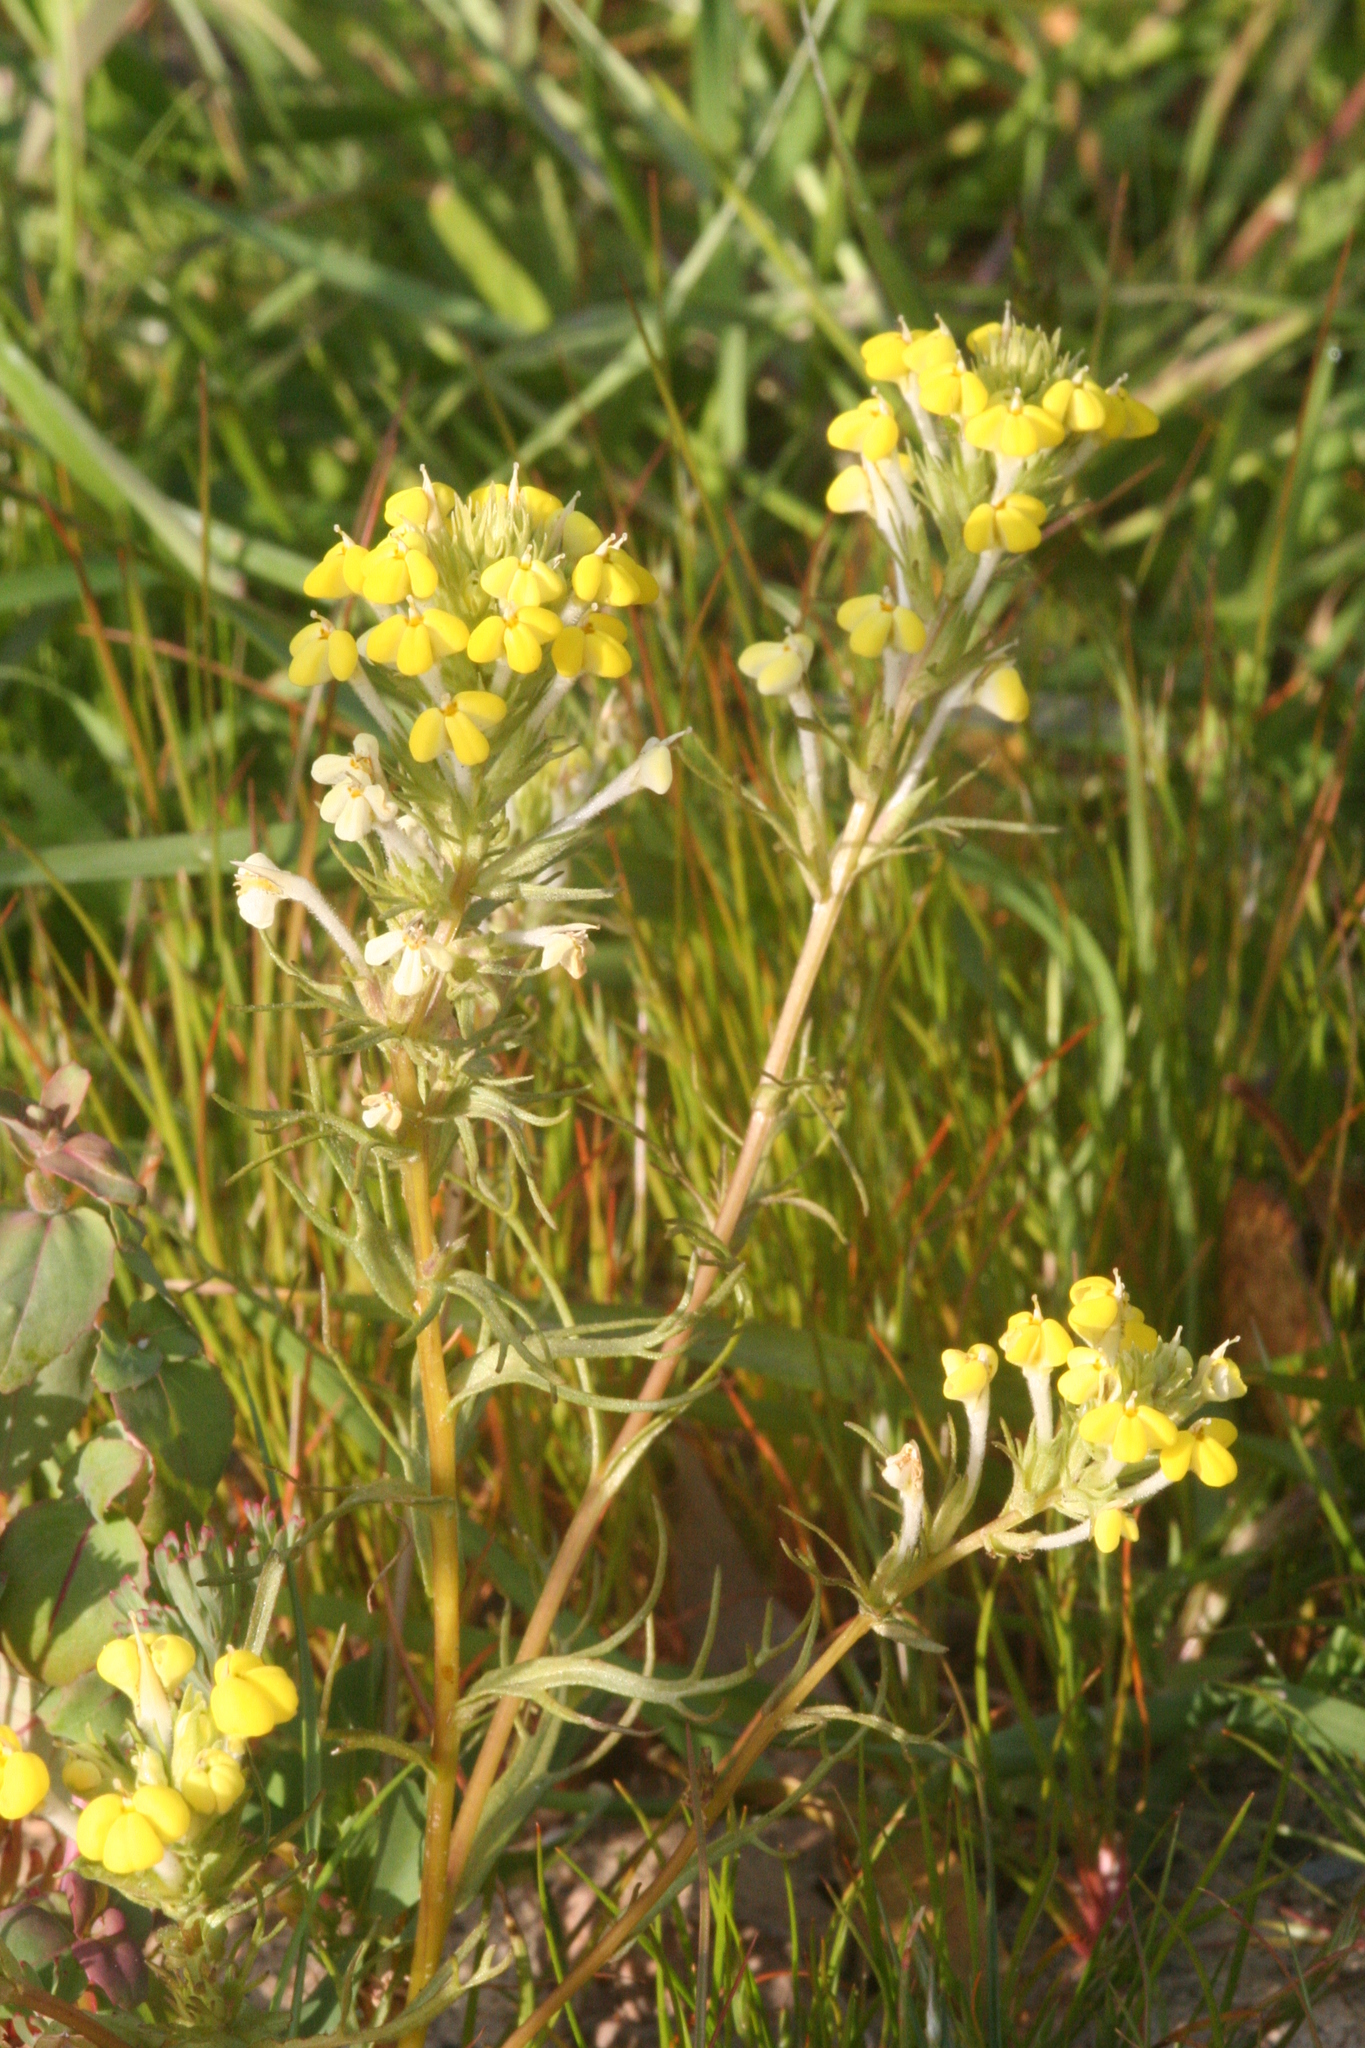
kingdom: Plantae
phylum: Tracheophyta
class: Magnoliopsida
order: Lamiales
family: Orobanchaceae
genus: Triphysaria
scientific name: Triphysaria versicolor
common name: Bearded false owl-clover
